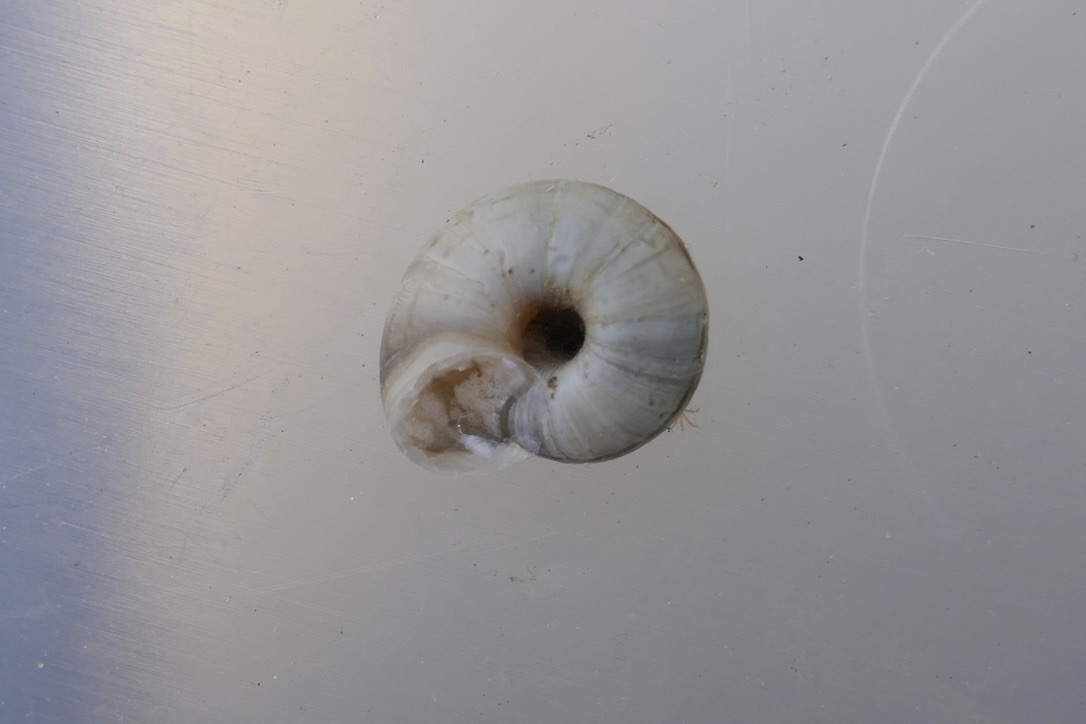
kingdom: Animalia
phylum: Mollusca
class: Gastropoda
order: Stylommatophora
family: Geomitridae
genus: Xerolenta
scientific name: Xerolenta obvia
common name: White heath snail
